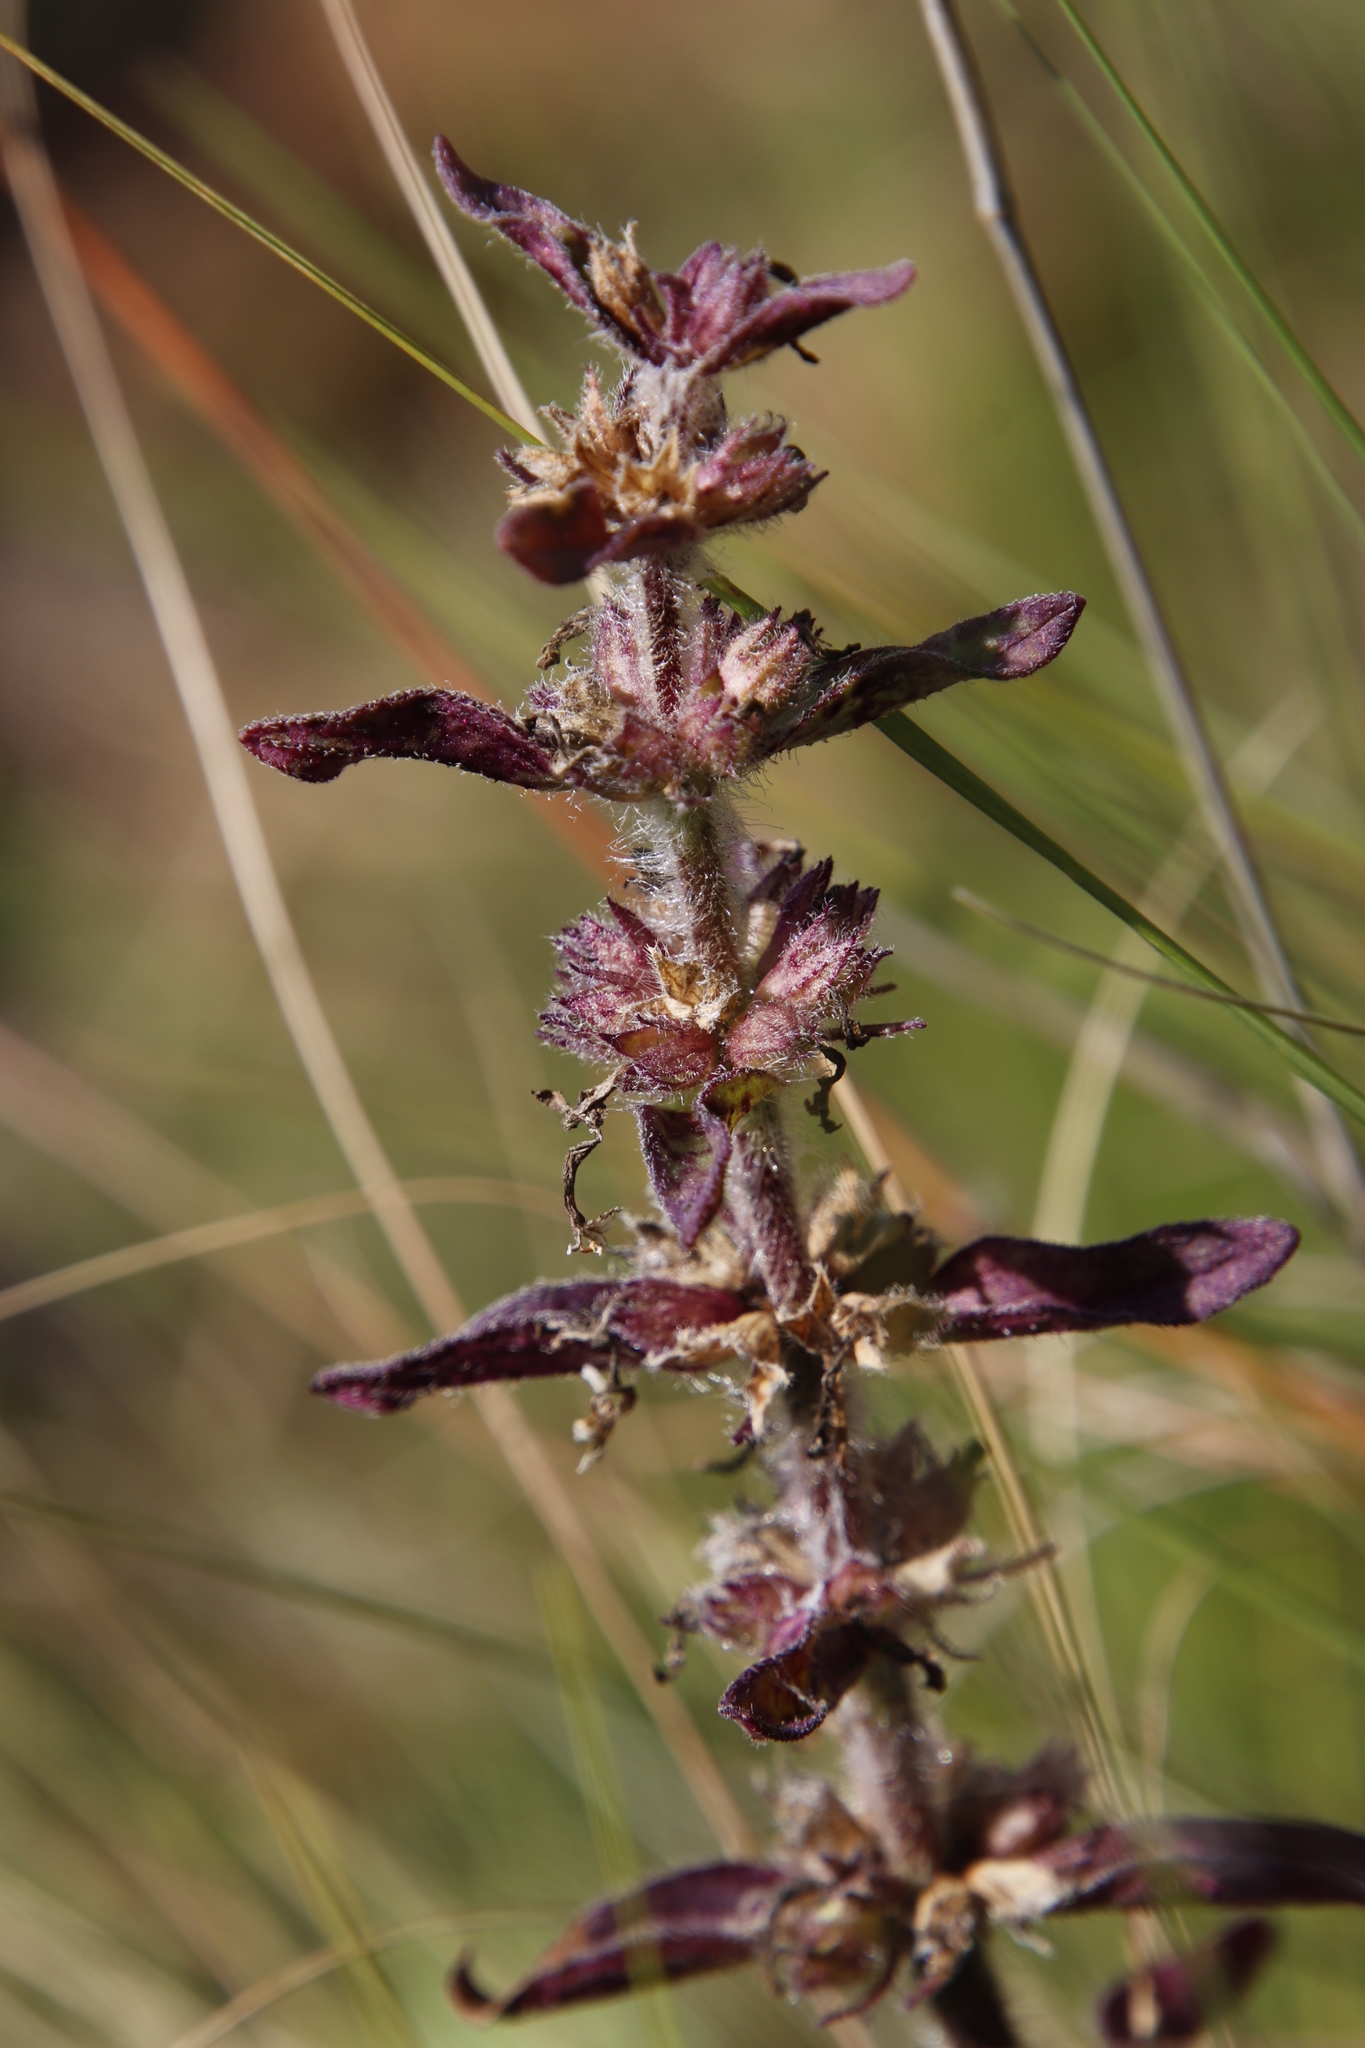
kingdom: Plantae
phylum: Tracheophyta
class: Magnoliopsida
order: Lamiales
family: Lamiaceae
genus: Ajuga
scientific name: Ajuga ophrydis
